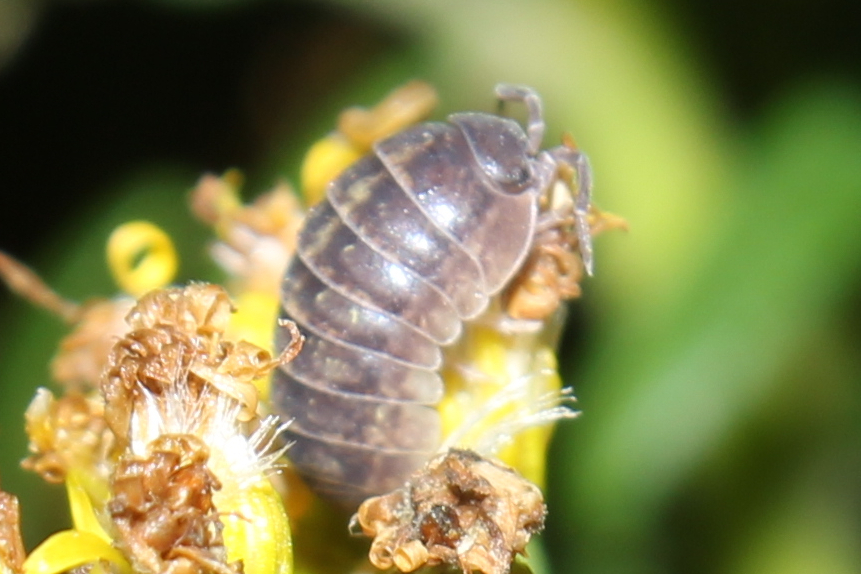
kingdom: Animalia
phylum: Arthropoda
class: Malacostraca
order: Isopoda
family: Armadillidiidae
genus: Armadillidium
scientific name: Armadillidium vulgare
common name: Common pill woodlouse
